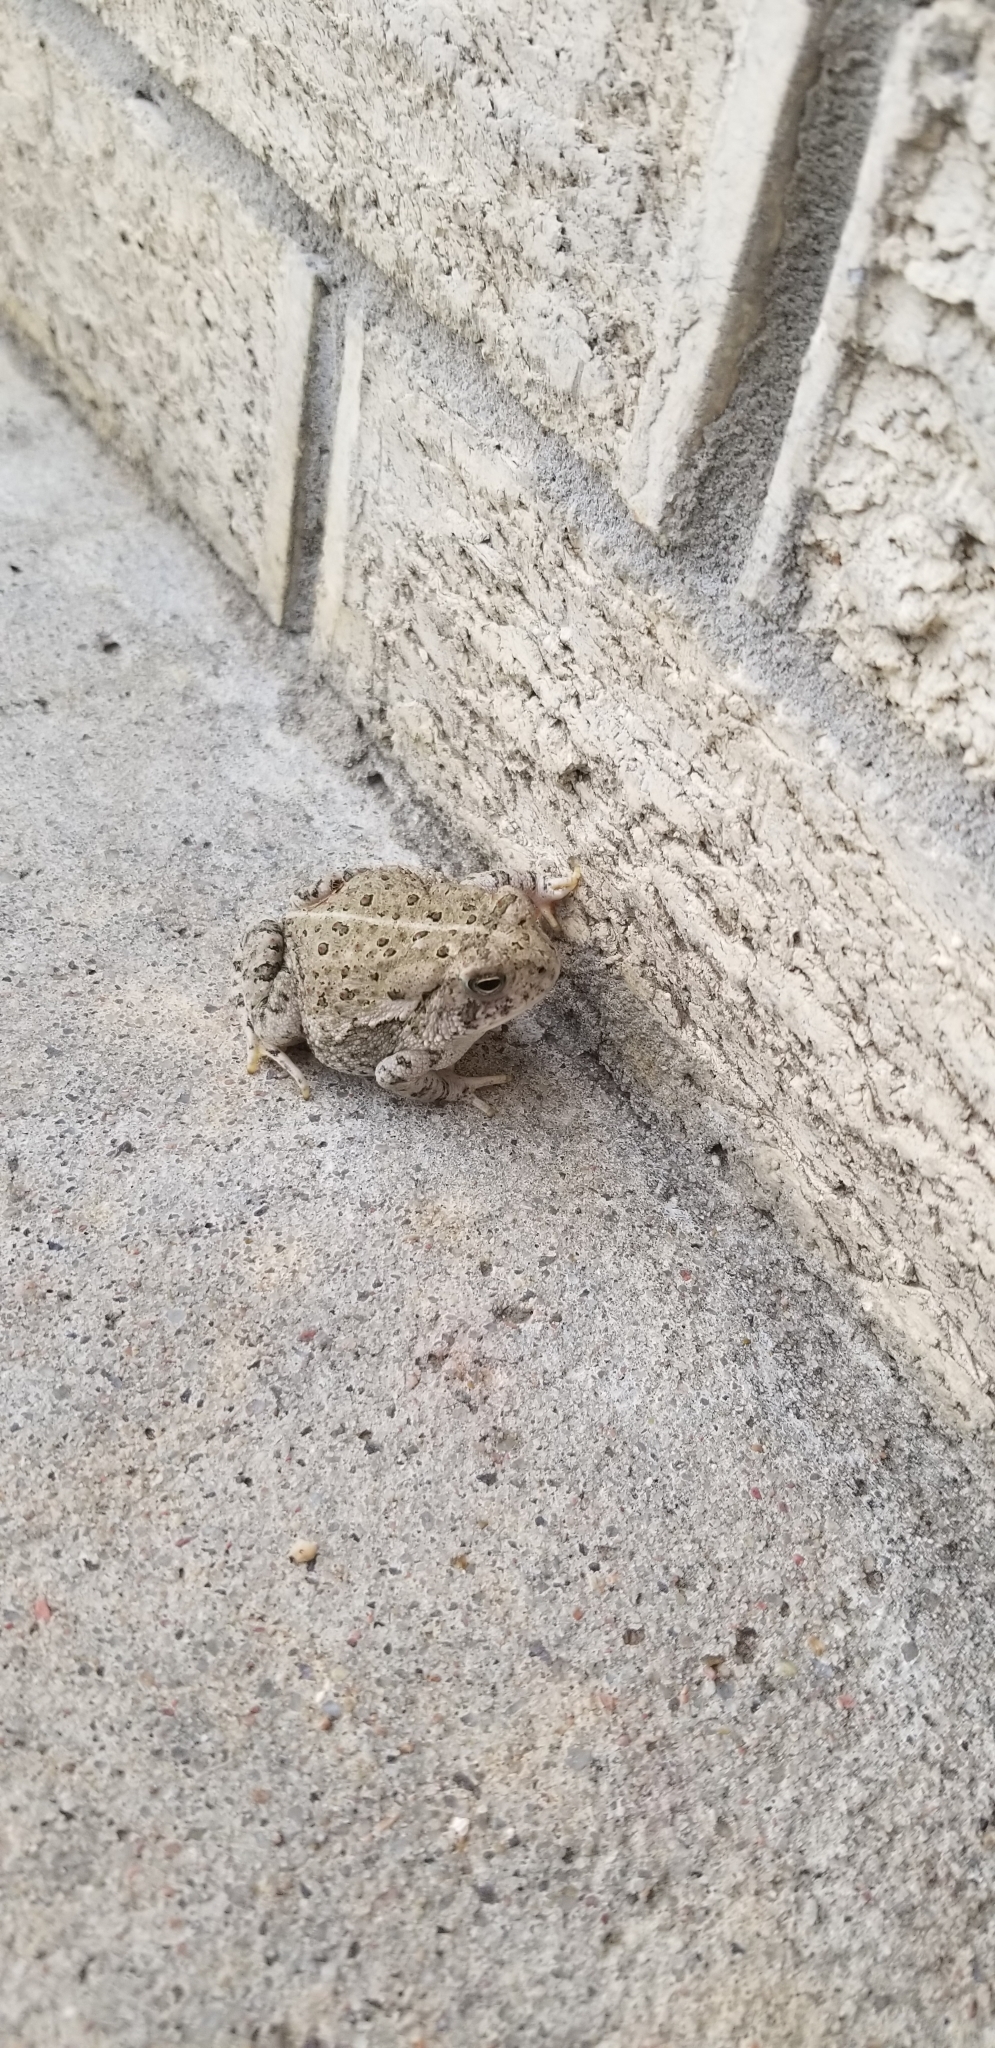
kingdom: Animalia
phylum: Chordata
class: Amphibia
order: Anura
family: Bufonidae
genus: Anaxyrus
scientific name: Anaxyrus woodhousii
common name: Woodhouse's toad
